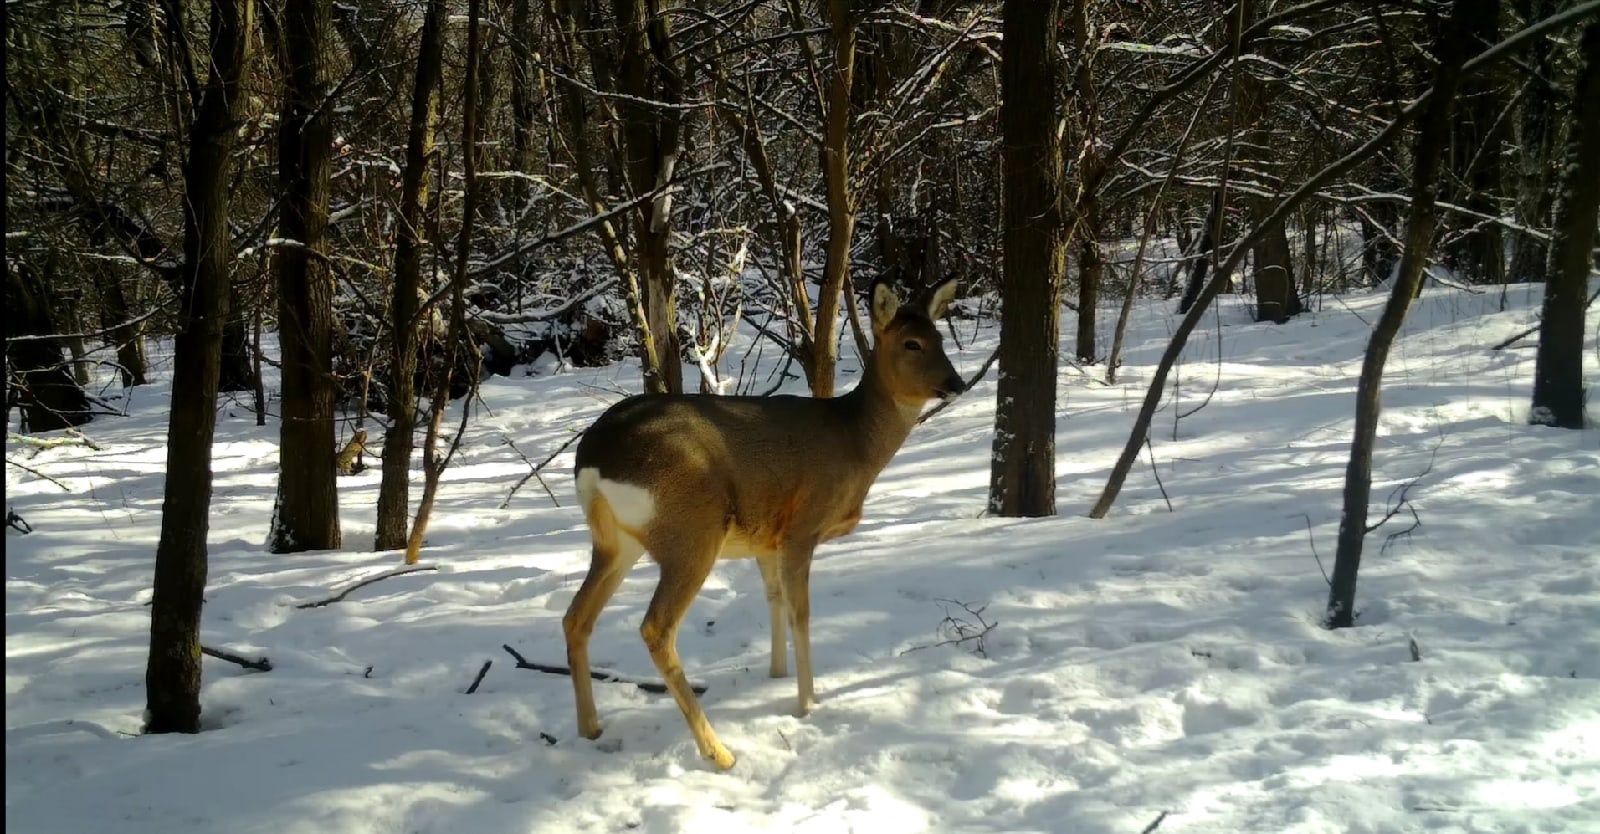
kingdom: Animalia
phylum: Chordata
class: Mammalia
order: Artiodactyla
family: Cervidae
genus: Capreolus
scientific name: Capreolus pygargus
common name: Siberian roe
